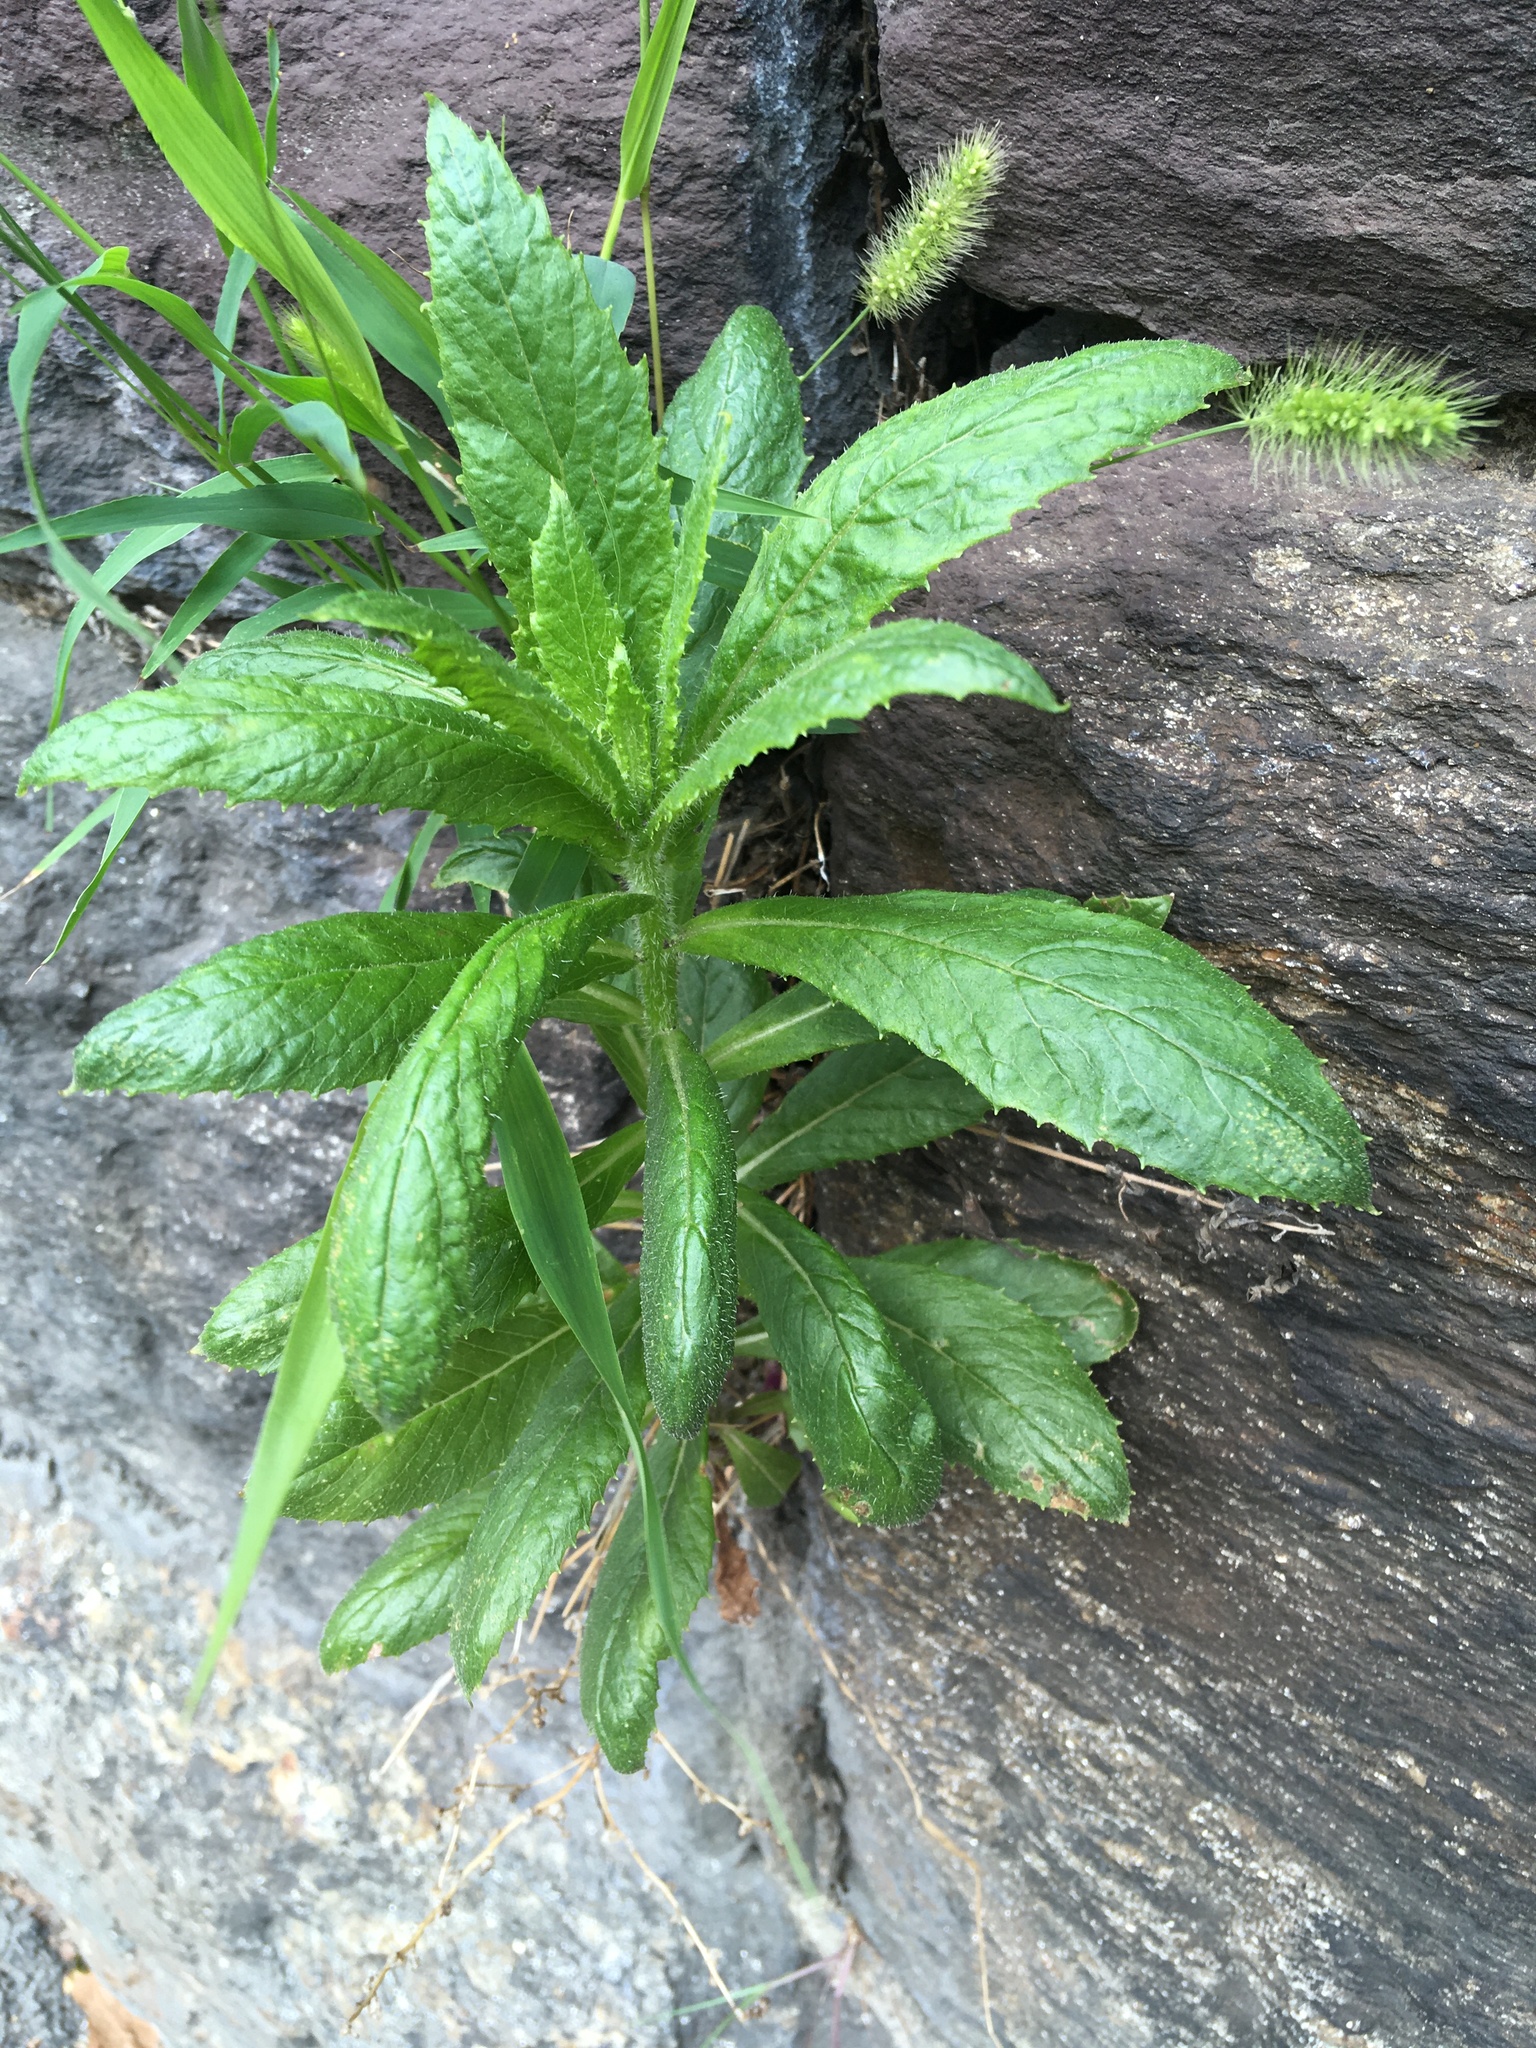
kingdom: Plantae
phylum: Tracheophyta
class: Magnoliopsida
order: Asterales
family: Asteraceae
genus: Erechtites
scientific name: Erechtites hieraciifolius
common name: American burnweed
